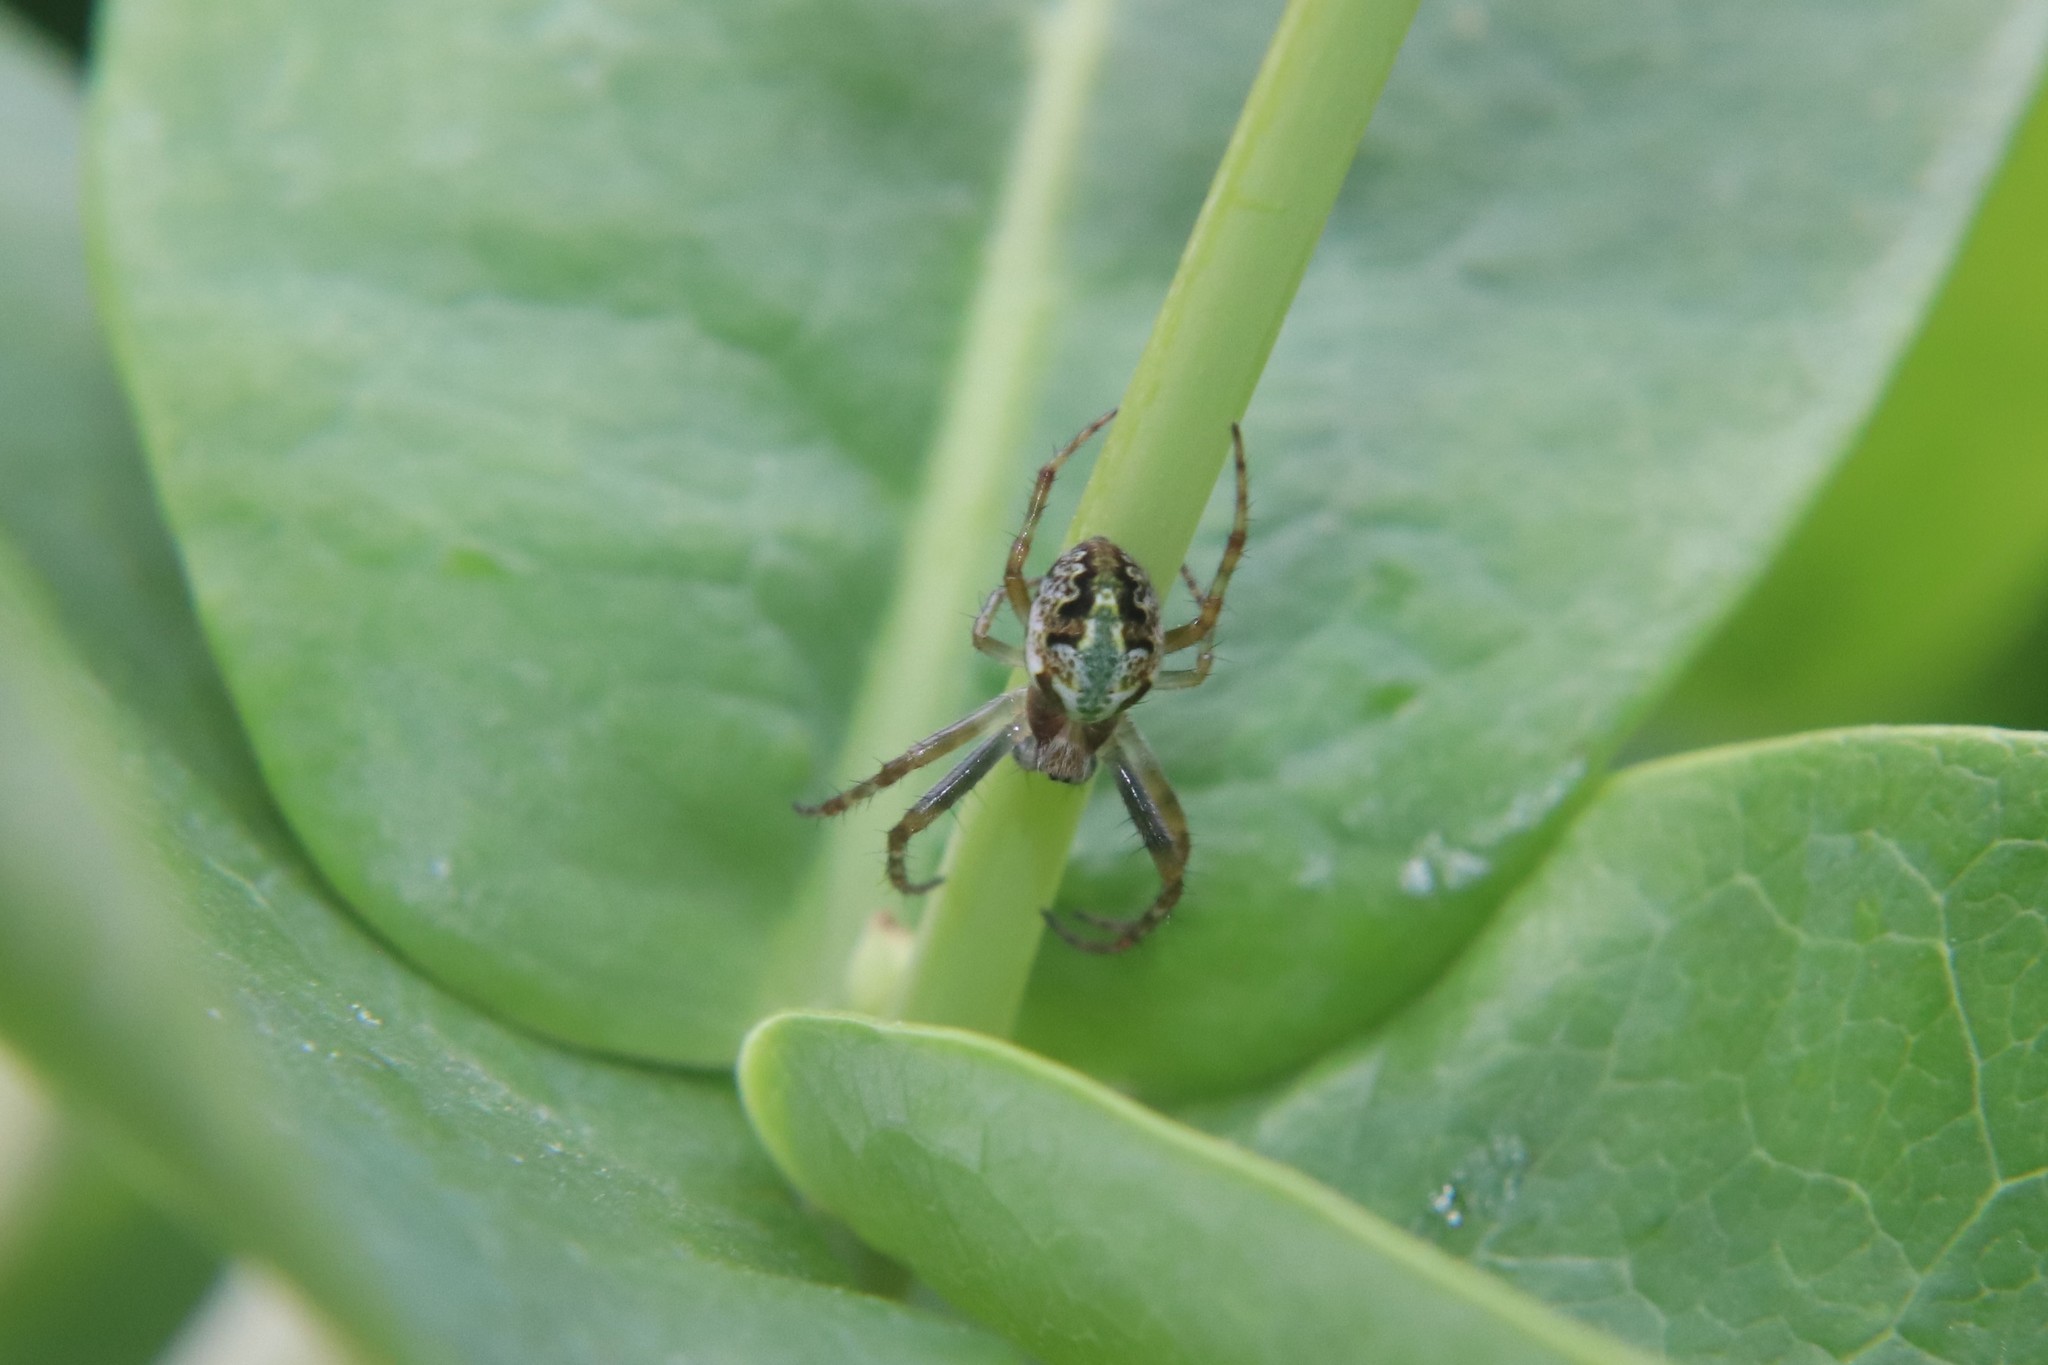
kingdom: Animalia
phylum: Arthropoda
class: Arachnida
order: Araneae
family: Araneidae
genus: Novaranea
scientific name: Novaranea queribunda
